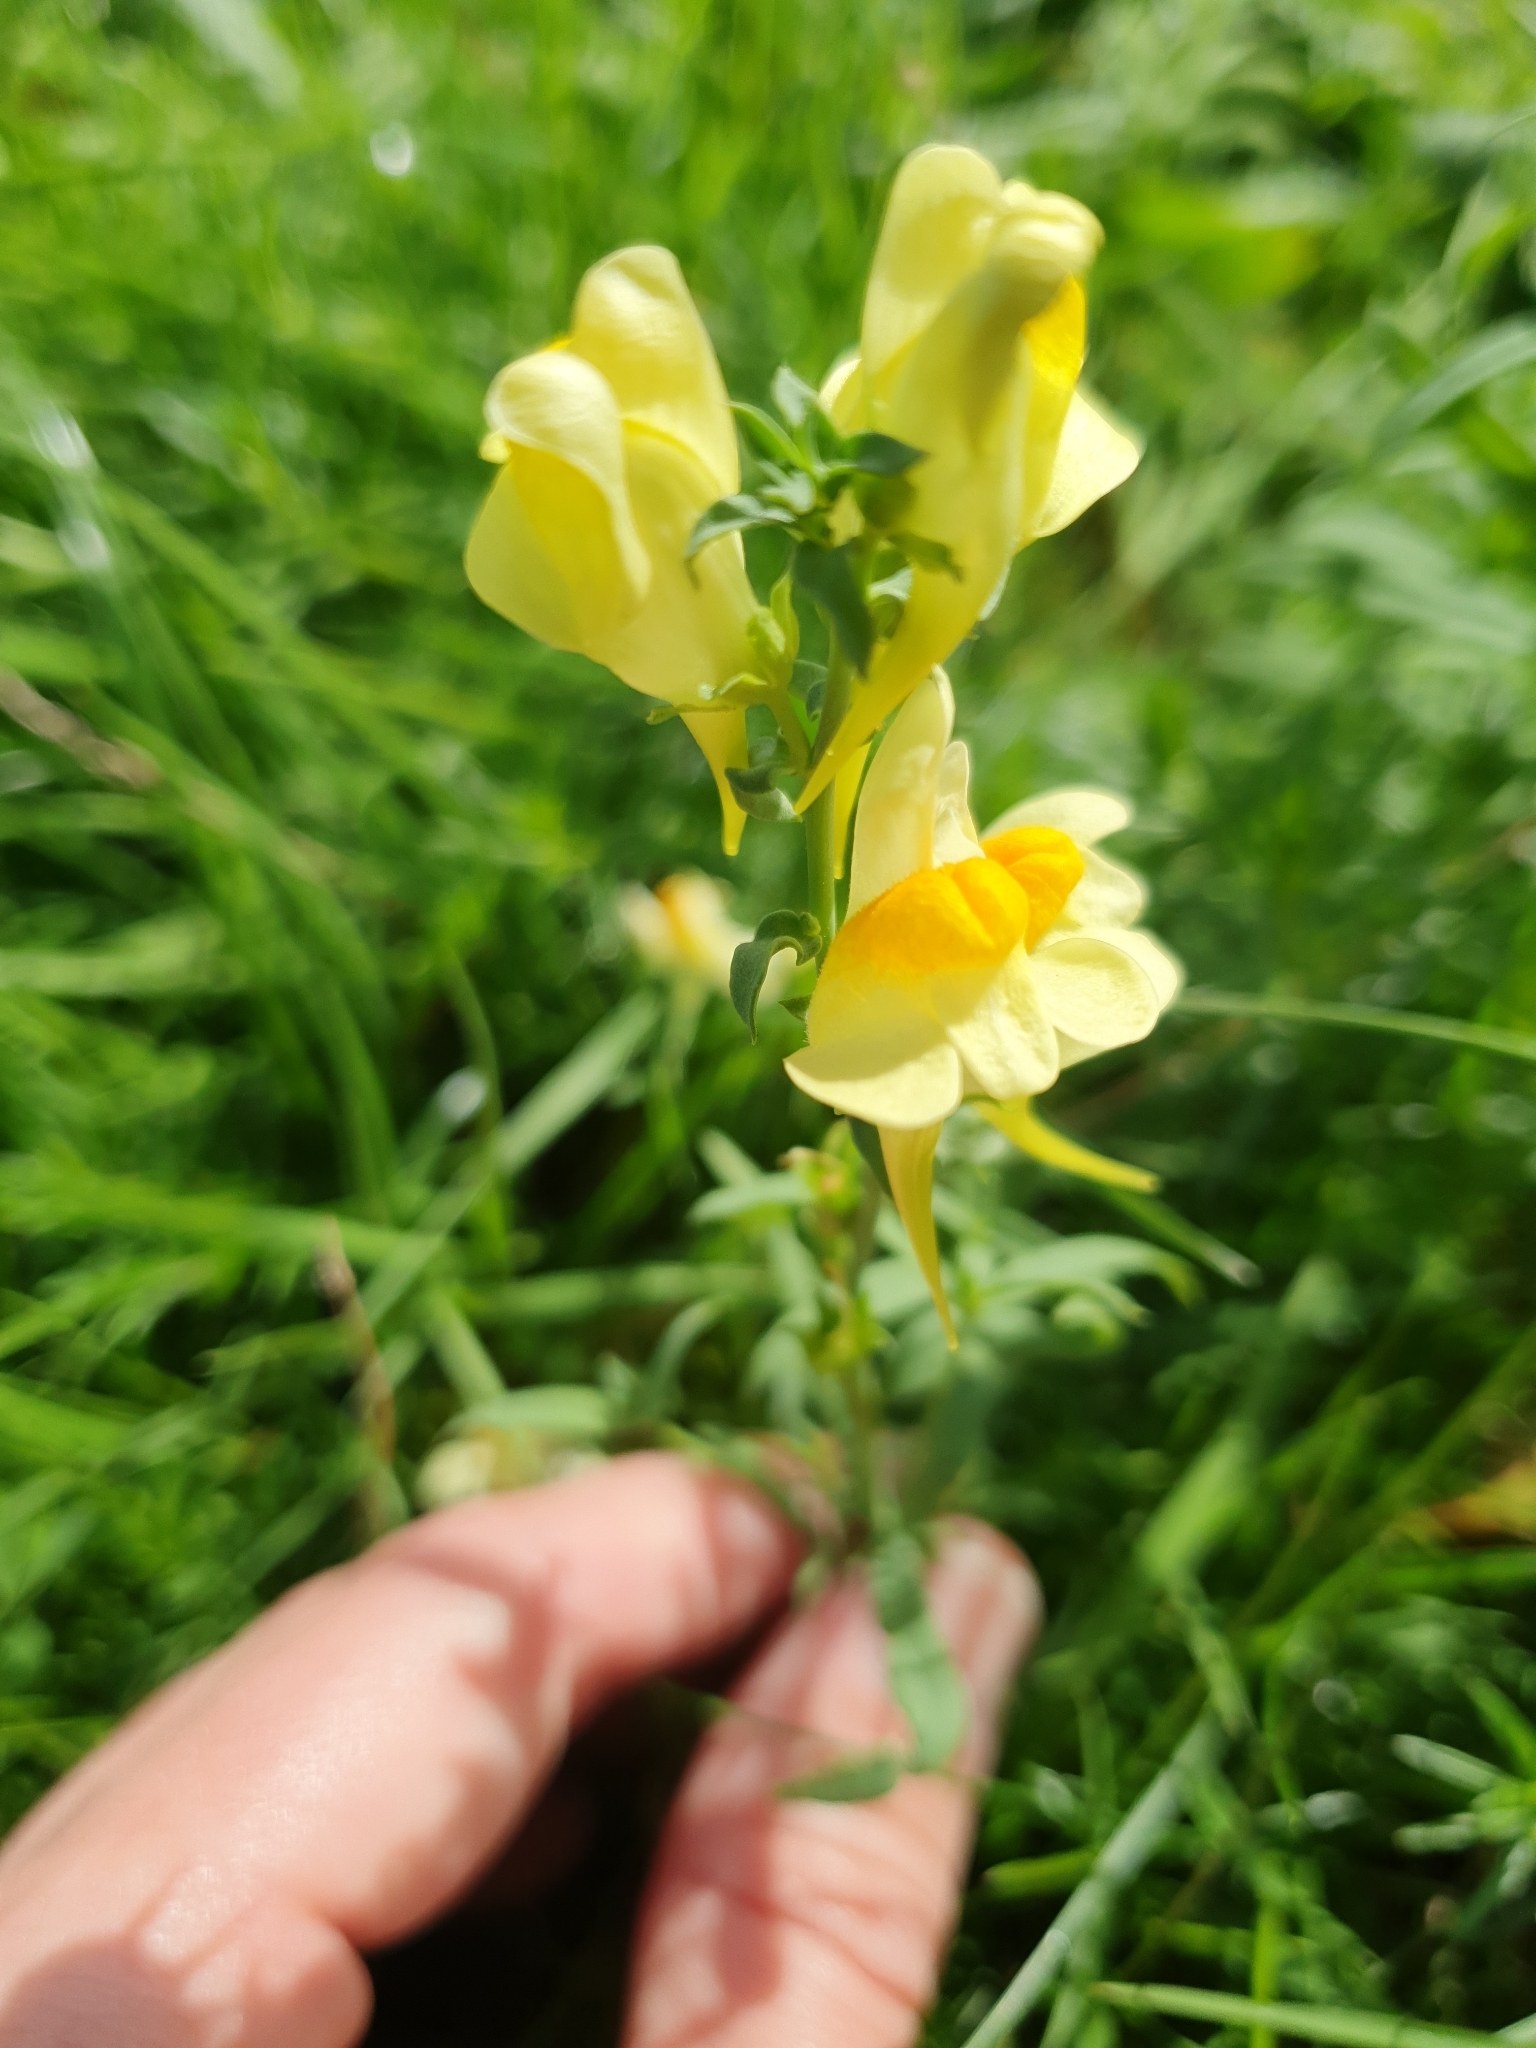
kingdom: Plantae
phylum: Tracheophyta
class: Magnoliopsida
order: Lamiales
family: Plantaginaceae
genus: Linaria
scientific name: Linaria vulgaris
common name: Butter and eggs
